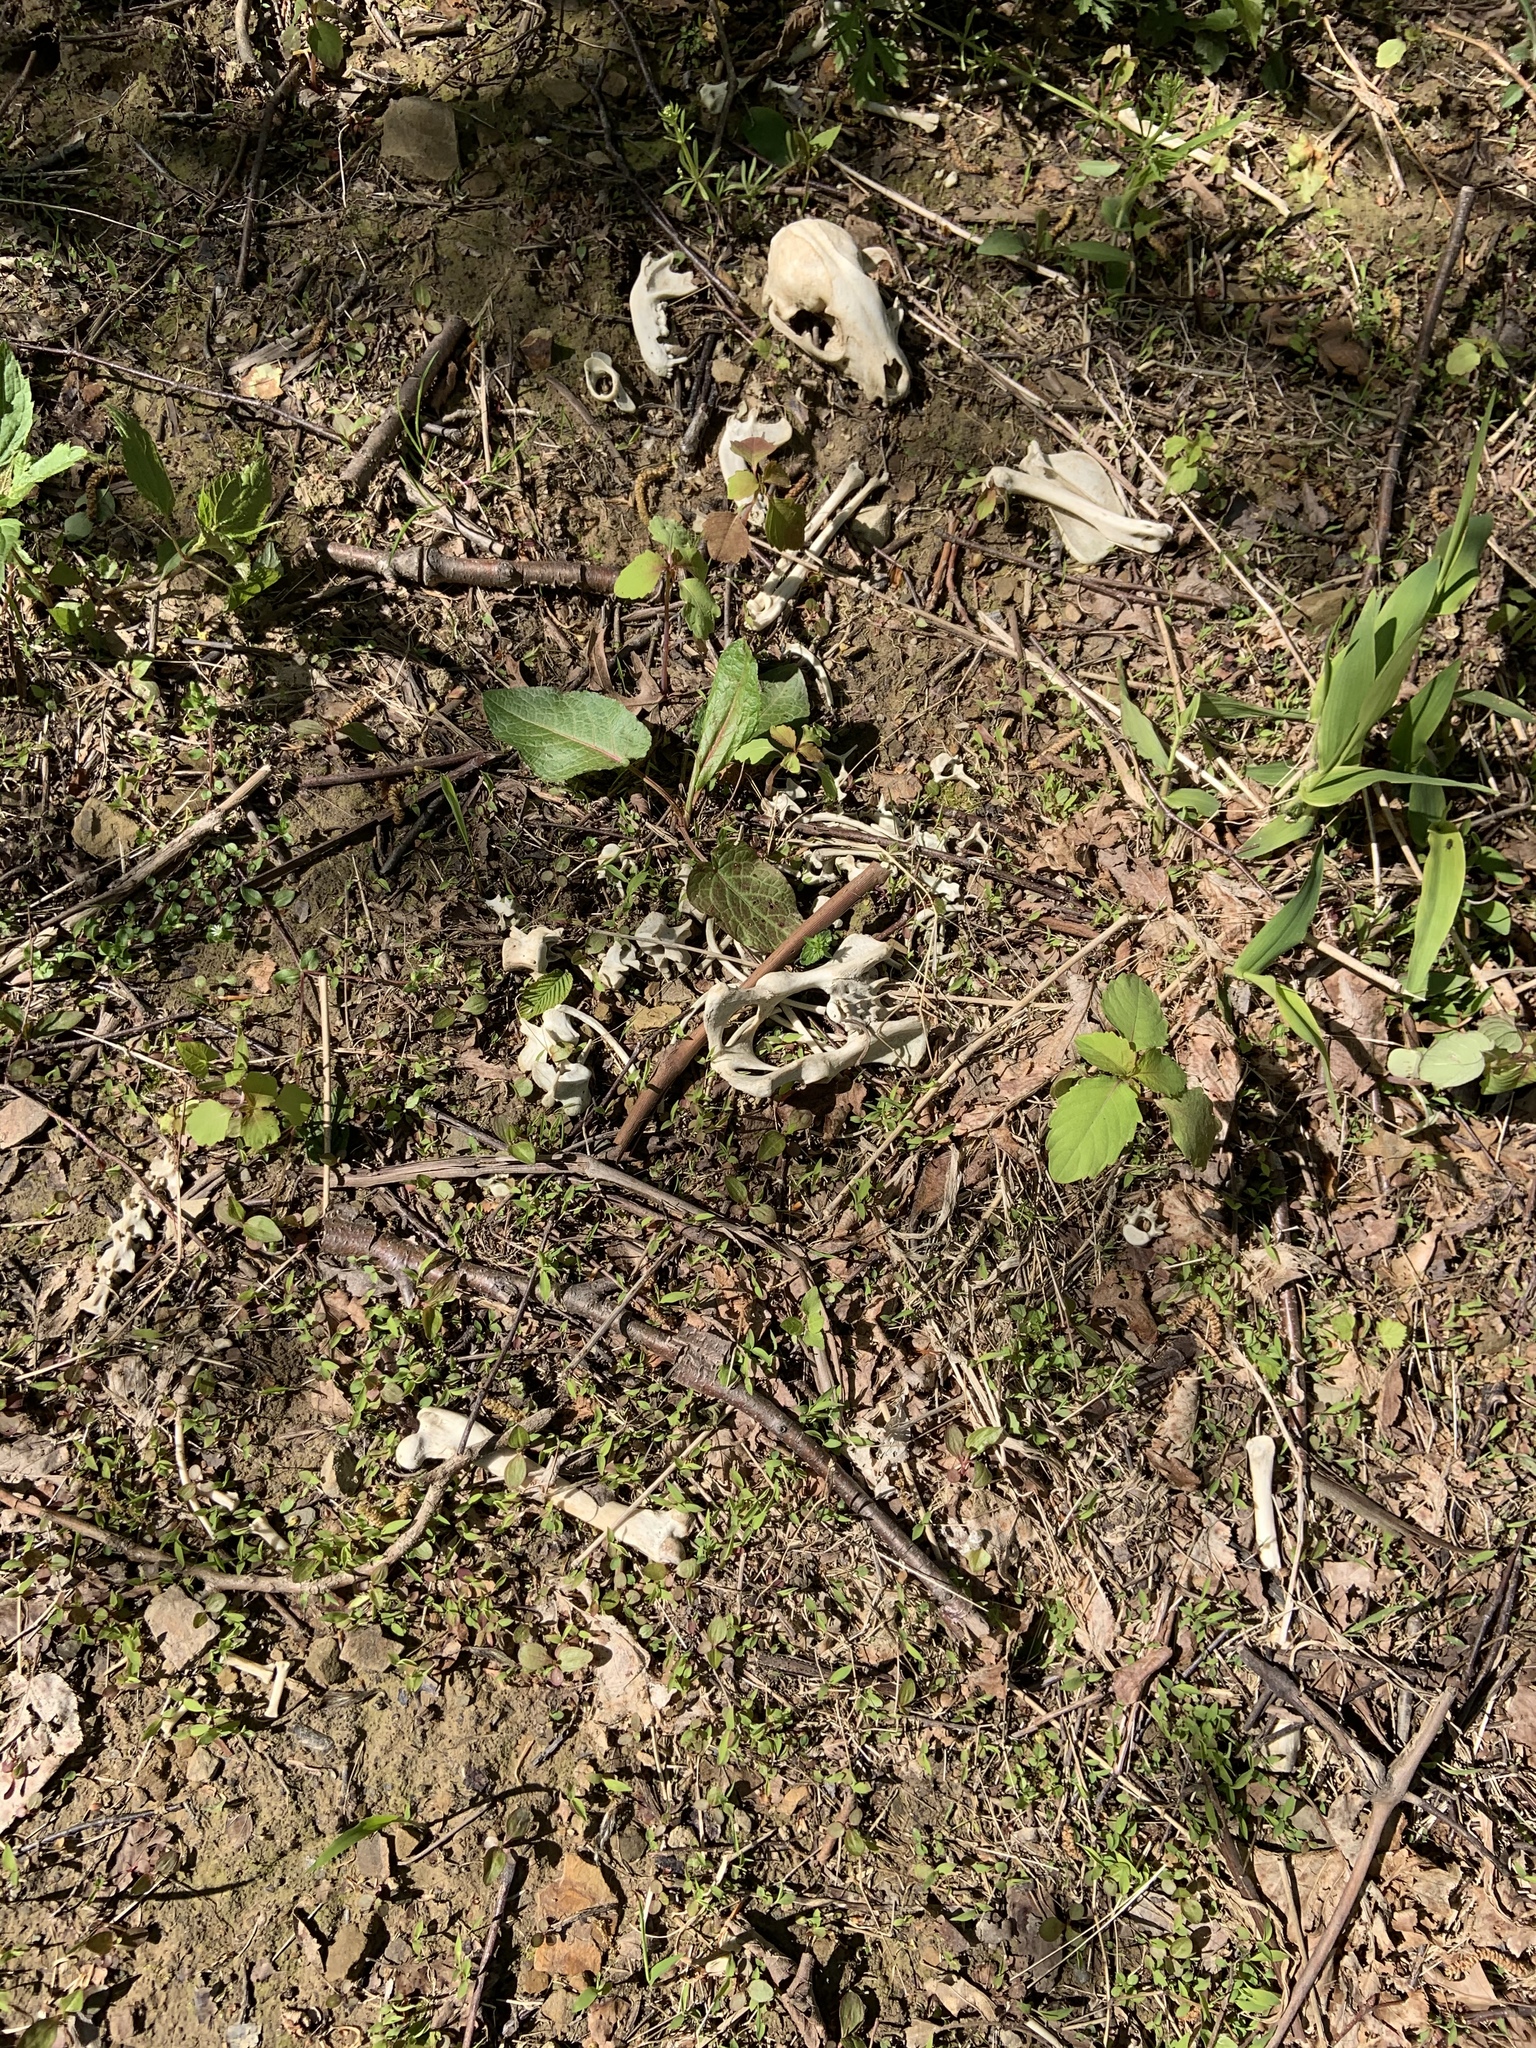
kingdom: Animalia
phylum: Chordata
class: Mammalia
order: Carnivora
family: Procyonidae
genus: Procyon
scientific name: Procyon lotor
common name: Raccoon
